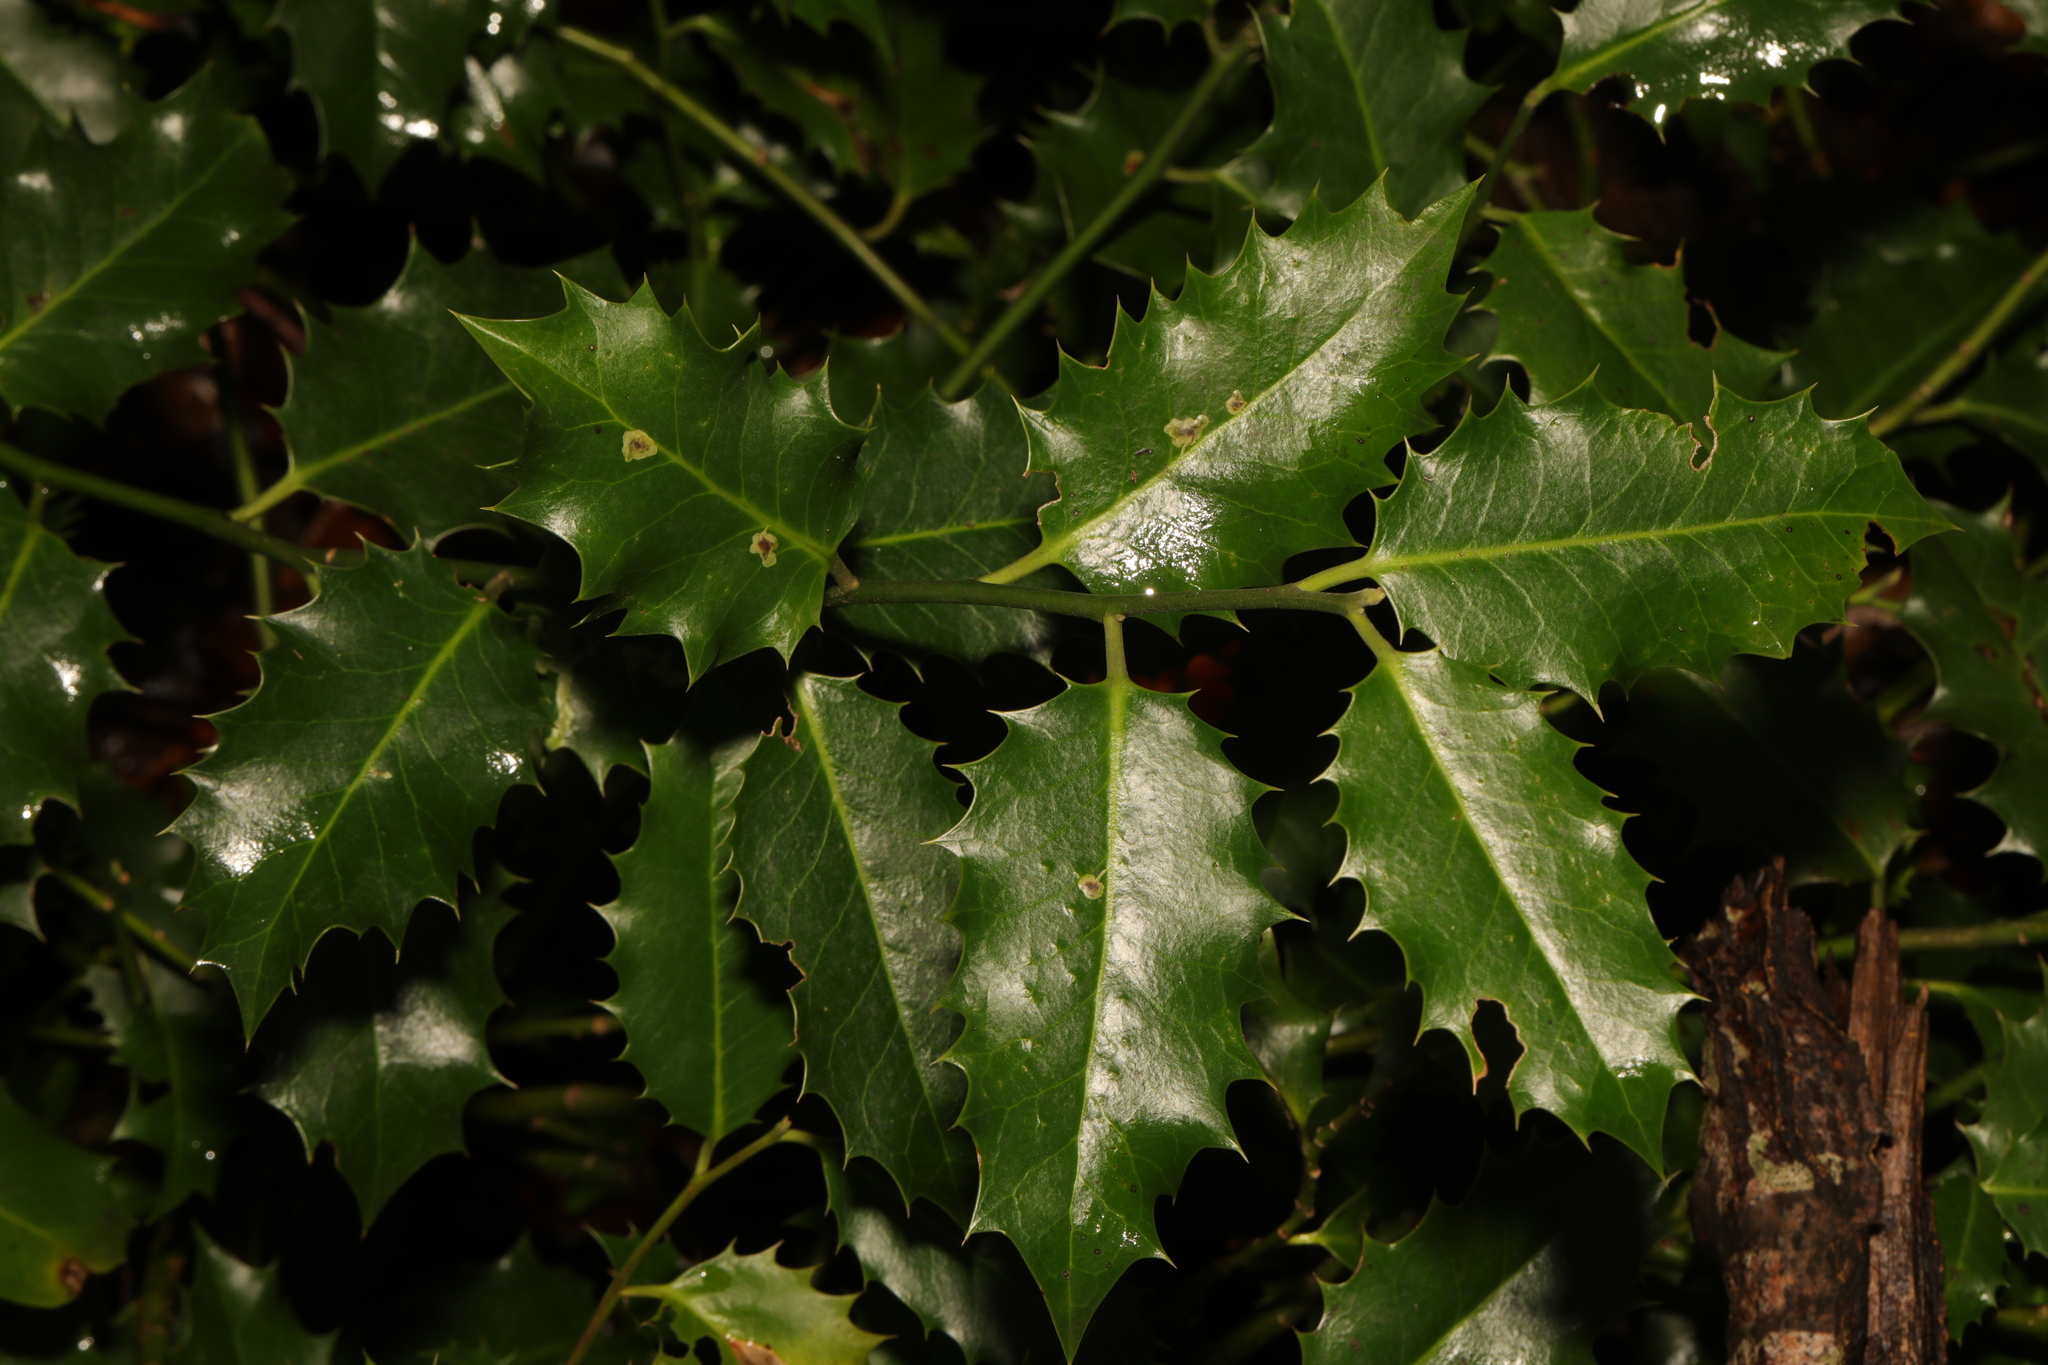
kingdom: Plantae
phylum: Tracheophyta
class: Magnoliopsida
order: Aquifoliales
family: Aquifoliaceae
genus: Ilex
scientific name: Ilex aquifolium
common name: English holly
